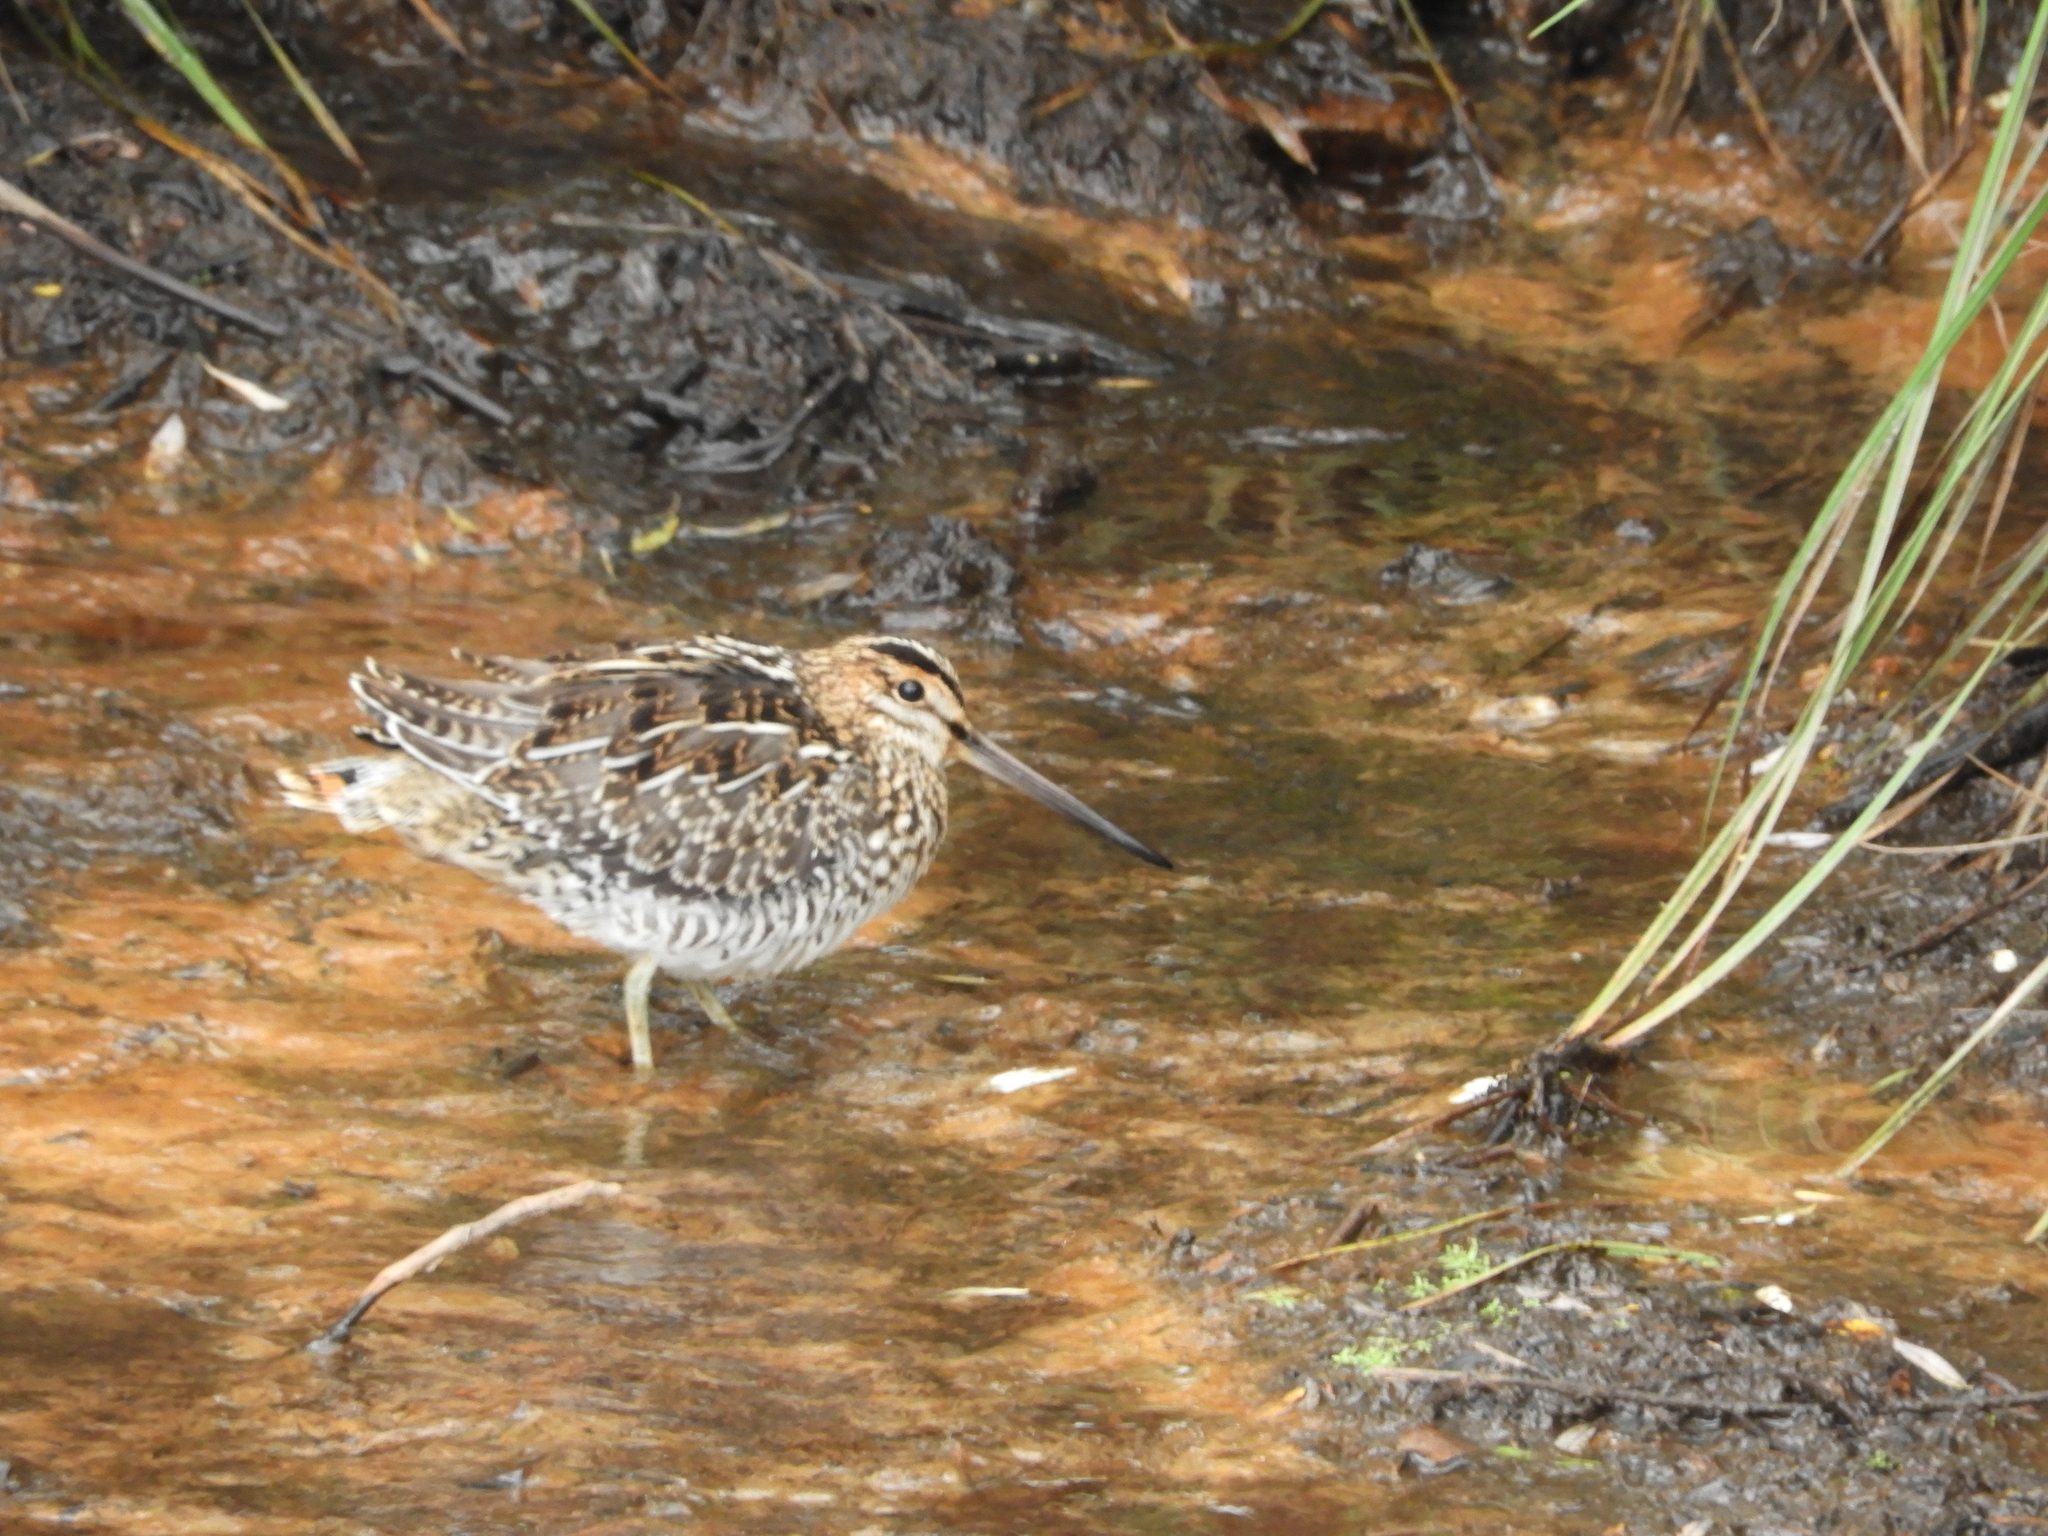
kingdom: Animalia
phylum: Chordata
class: Aves
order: Charadriiformes
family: Scolopacidae
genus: Gallinago
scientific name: Gallinago delicata
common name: Wilson's snipe
